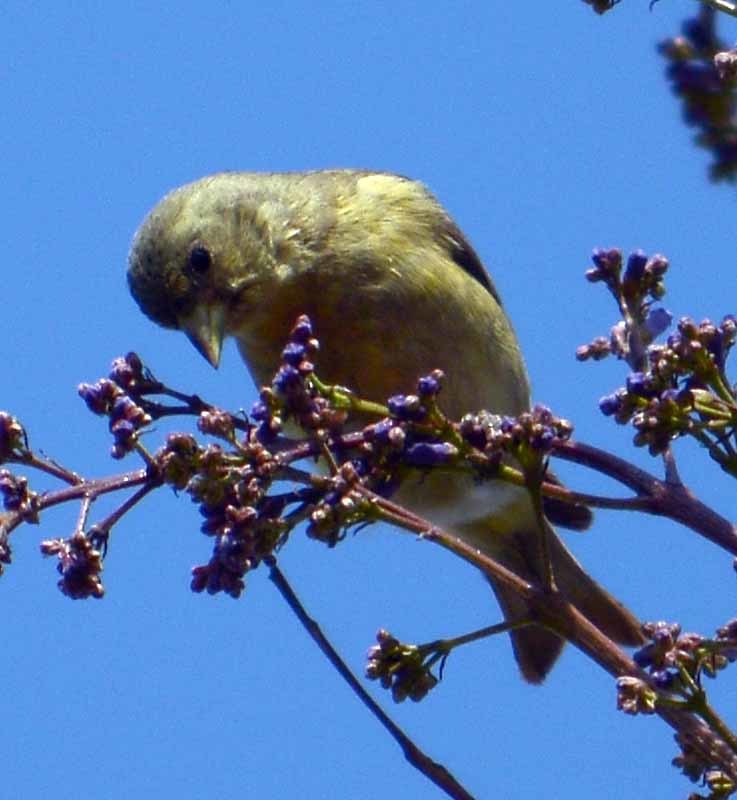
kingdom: Animalia
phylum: Chordata
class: Aves
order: Passeriformes
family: Fringillidae
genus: Spinus
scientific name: Spinus psaltria
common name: Lesser goldfinch
